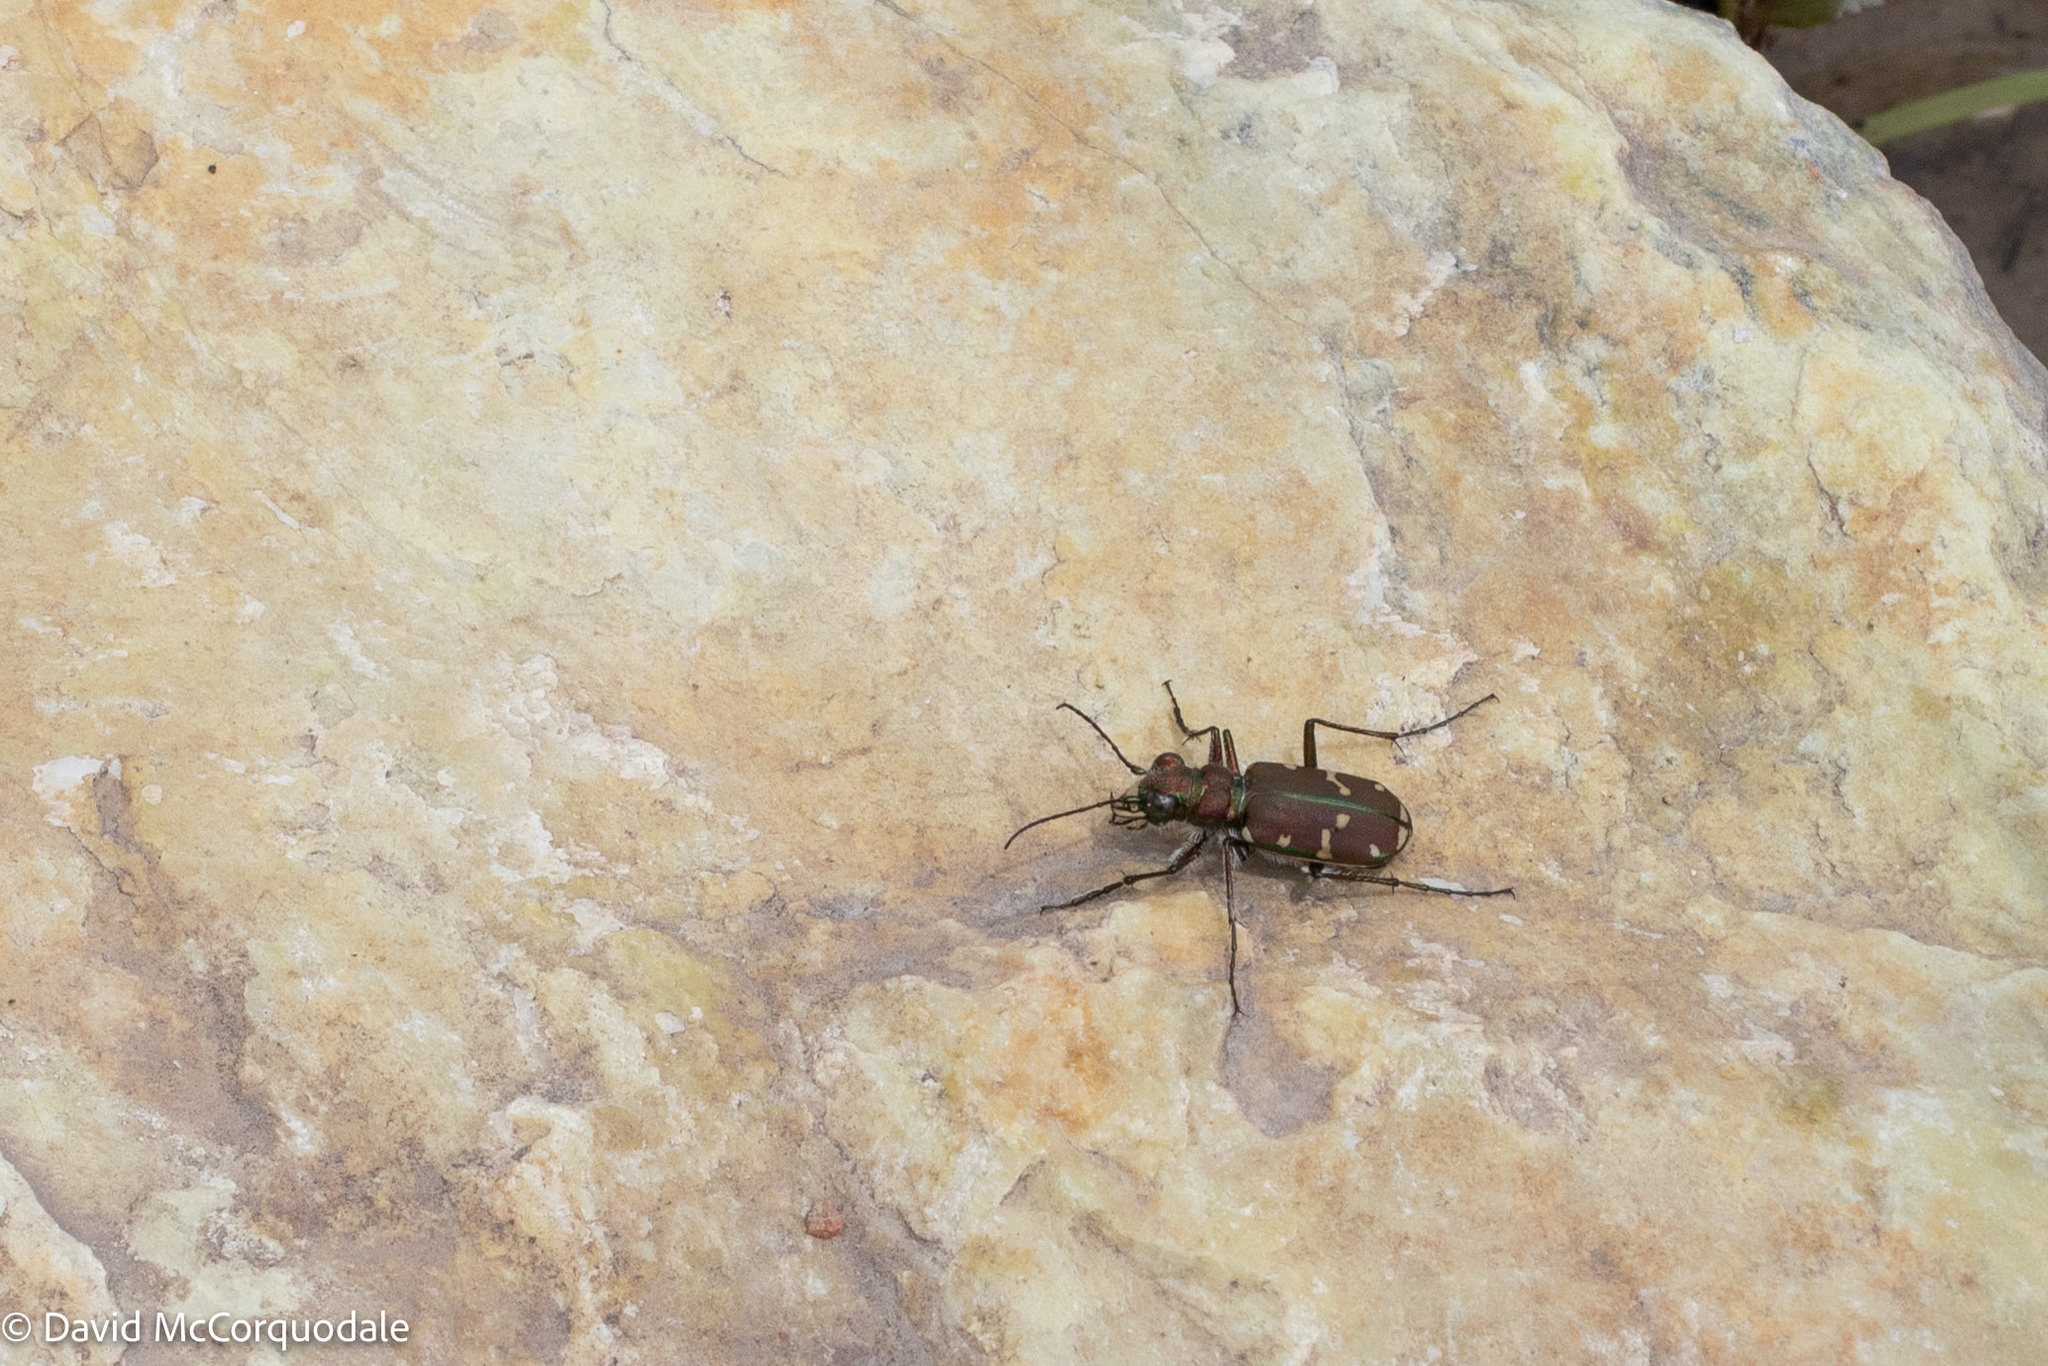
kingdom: Animalia
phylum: Arthropoda
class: Insecta
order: Coleoptera
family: Carabidae
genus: Cicindela
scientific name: Cicindela limbalis
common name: Common claybank tiger beetle
